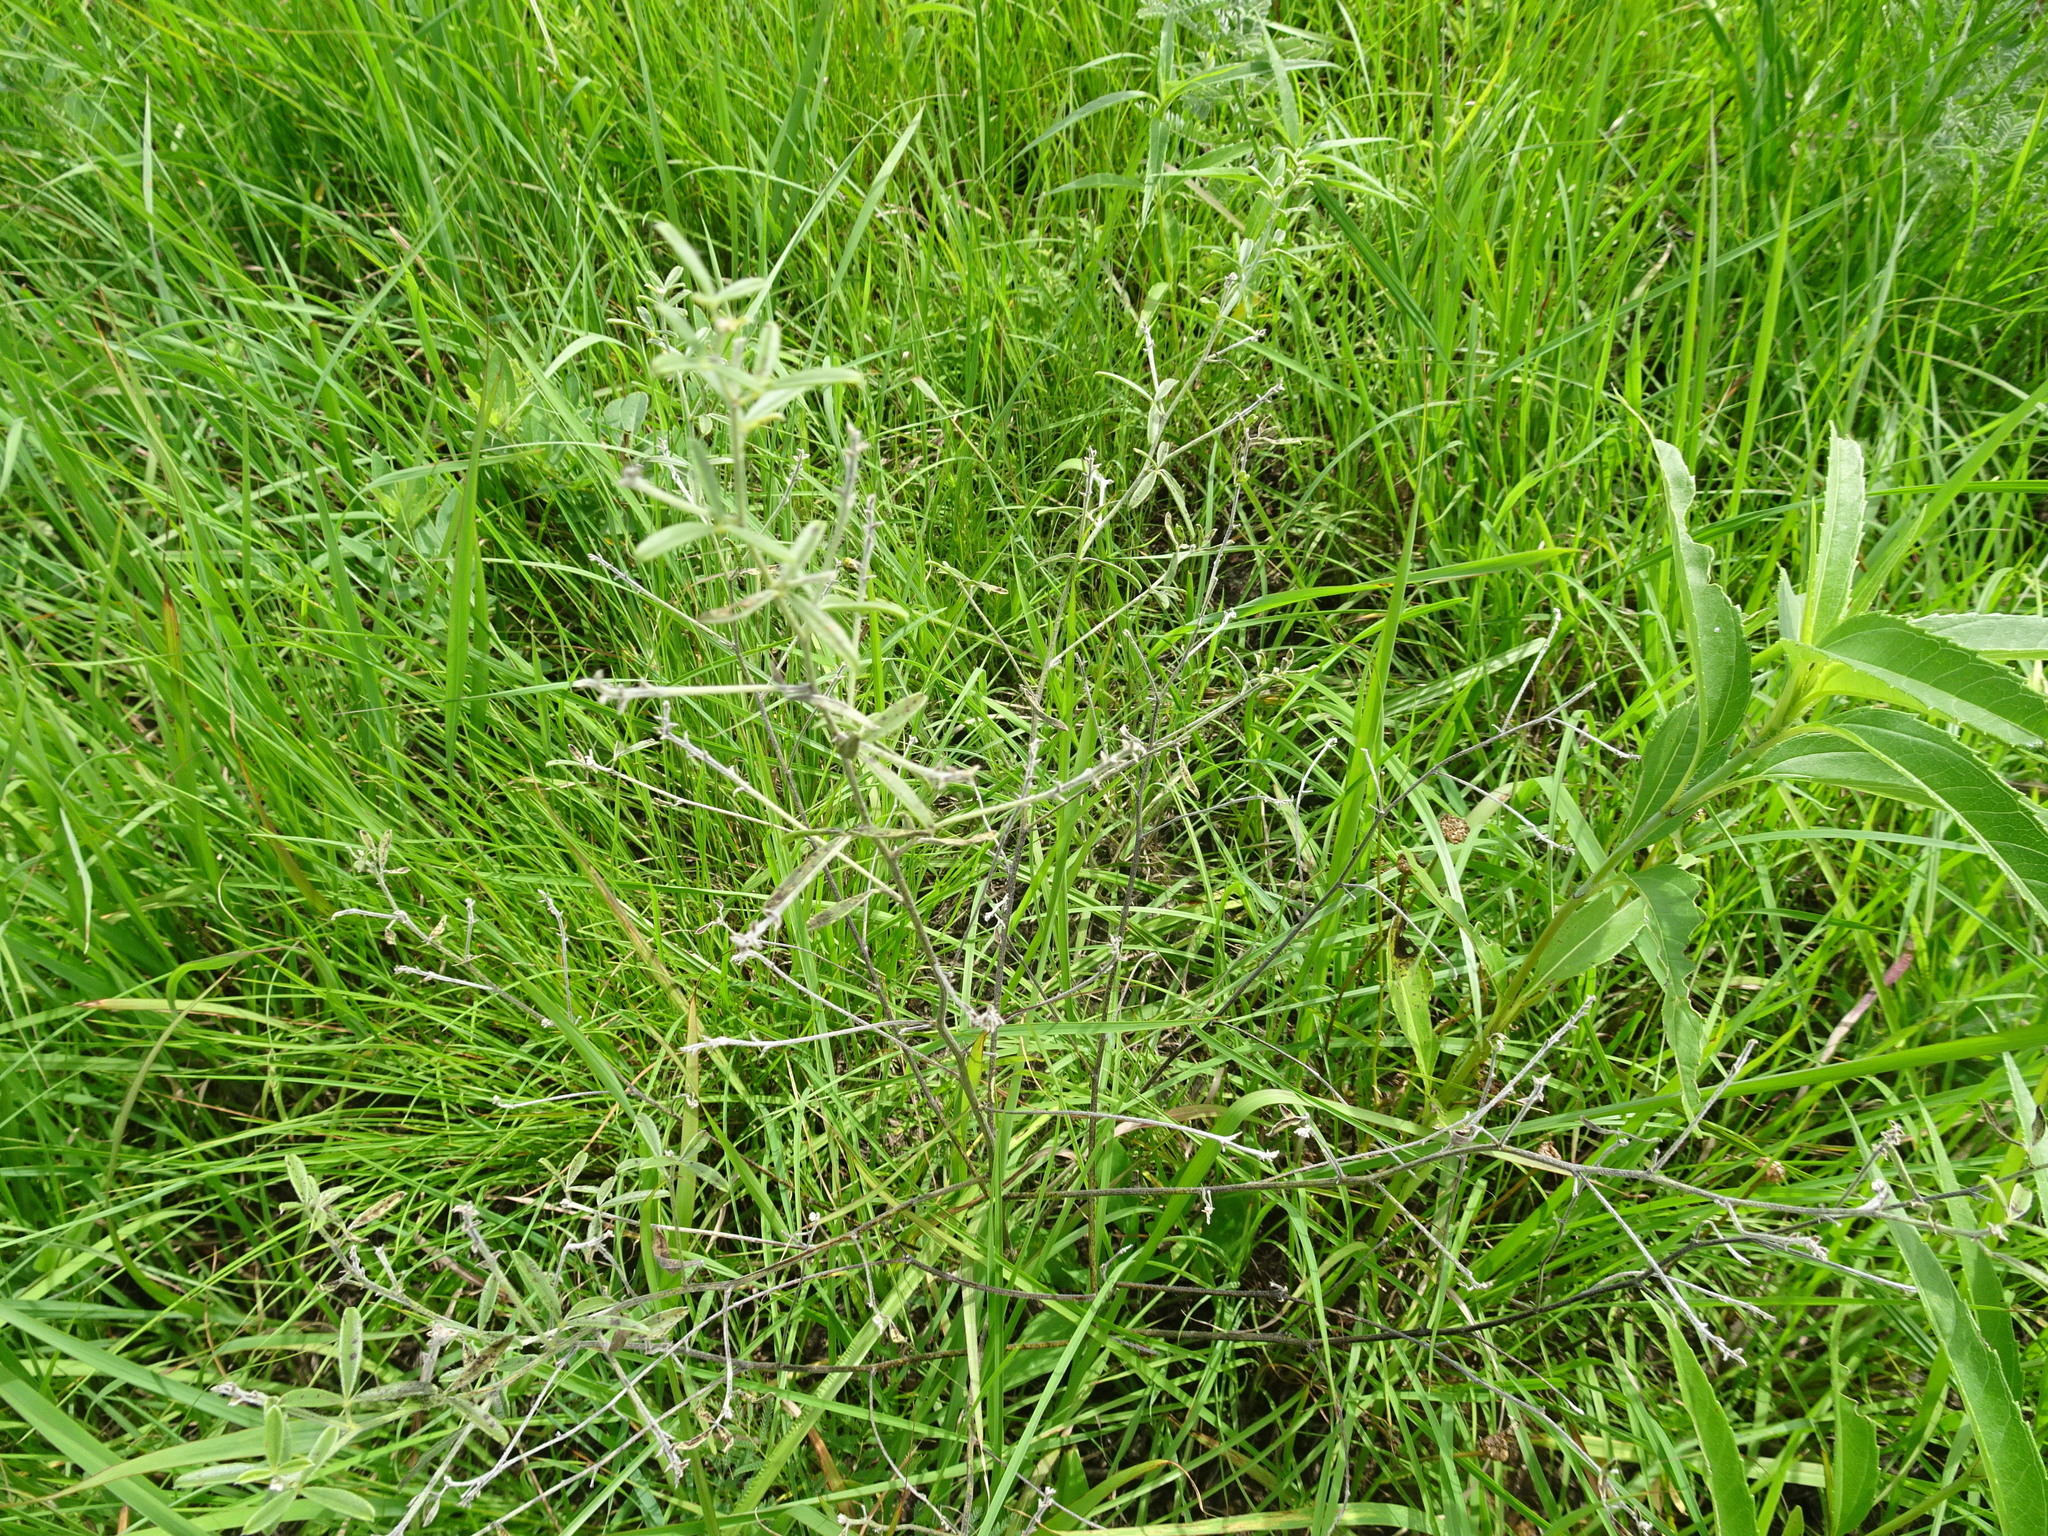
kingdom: Plantae
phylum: Tracheophyta
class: Magnoliopsida
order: Fabales
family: Fabaceae
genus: Pediomelum
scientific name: Pediomelum tenuiflorum
